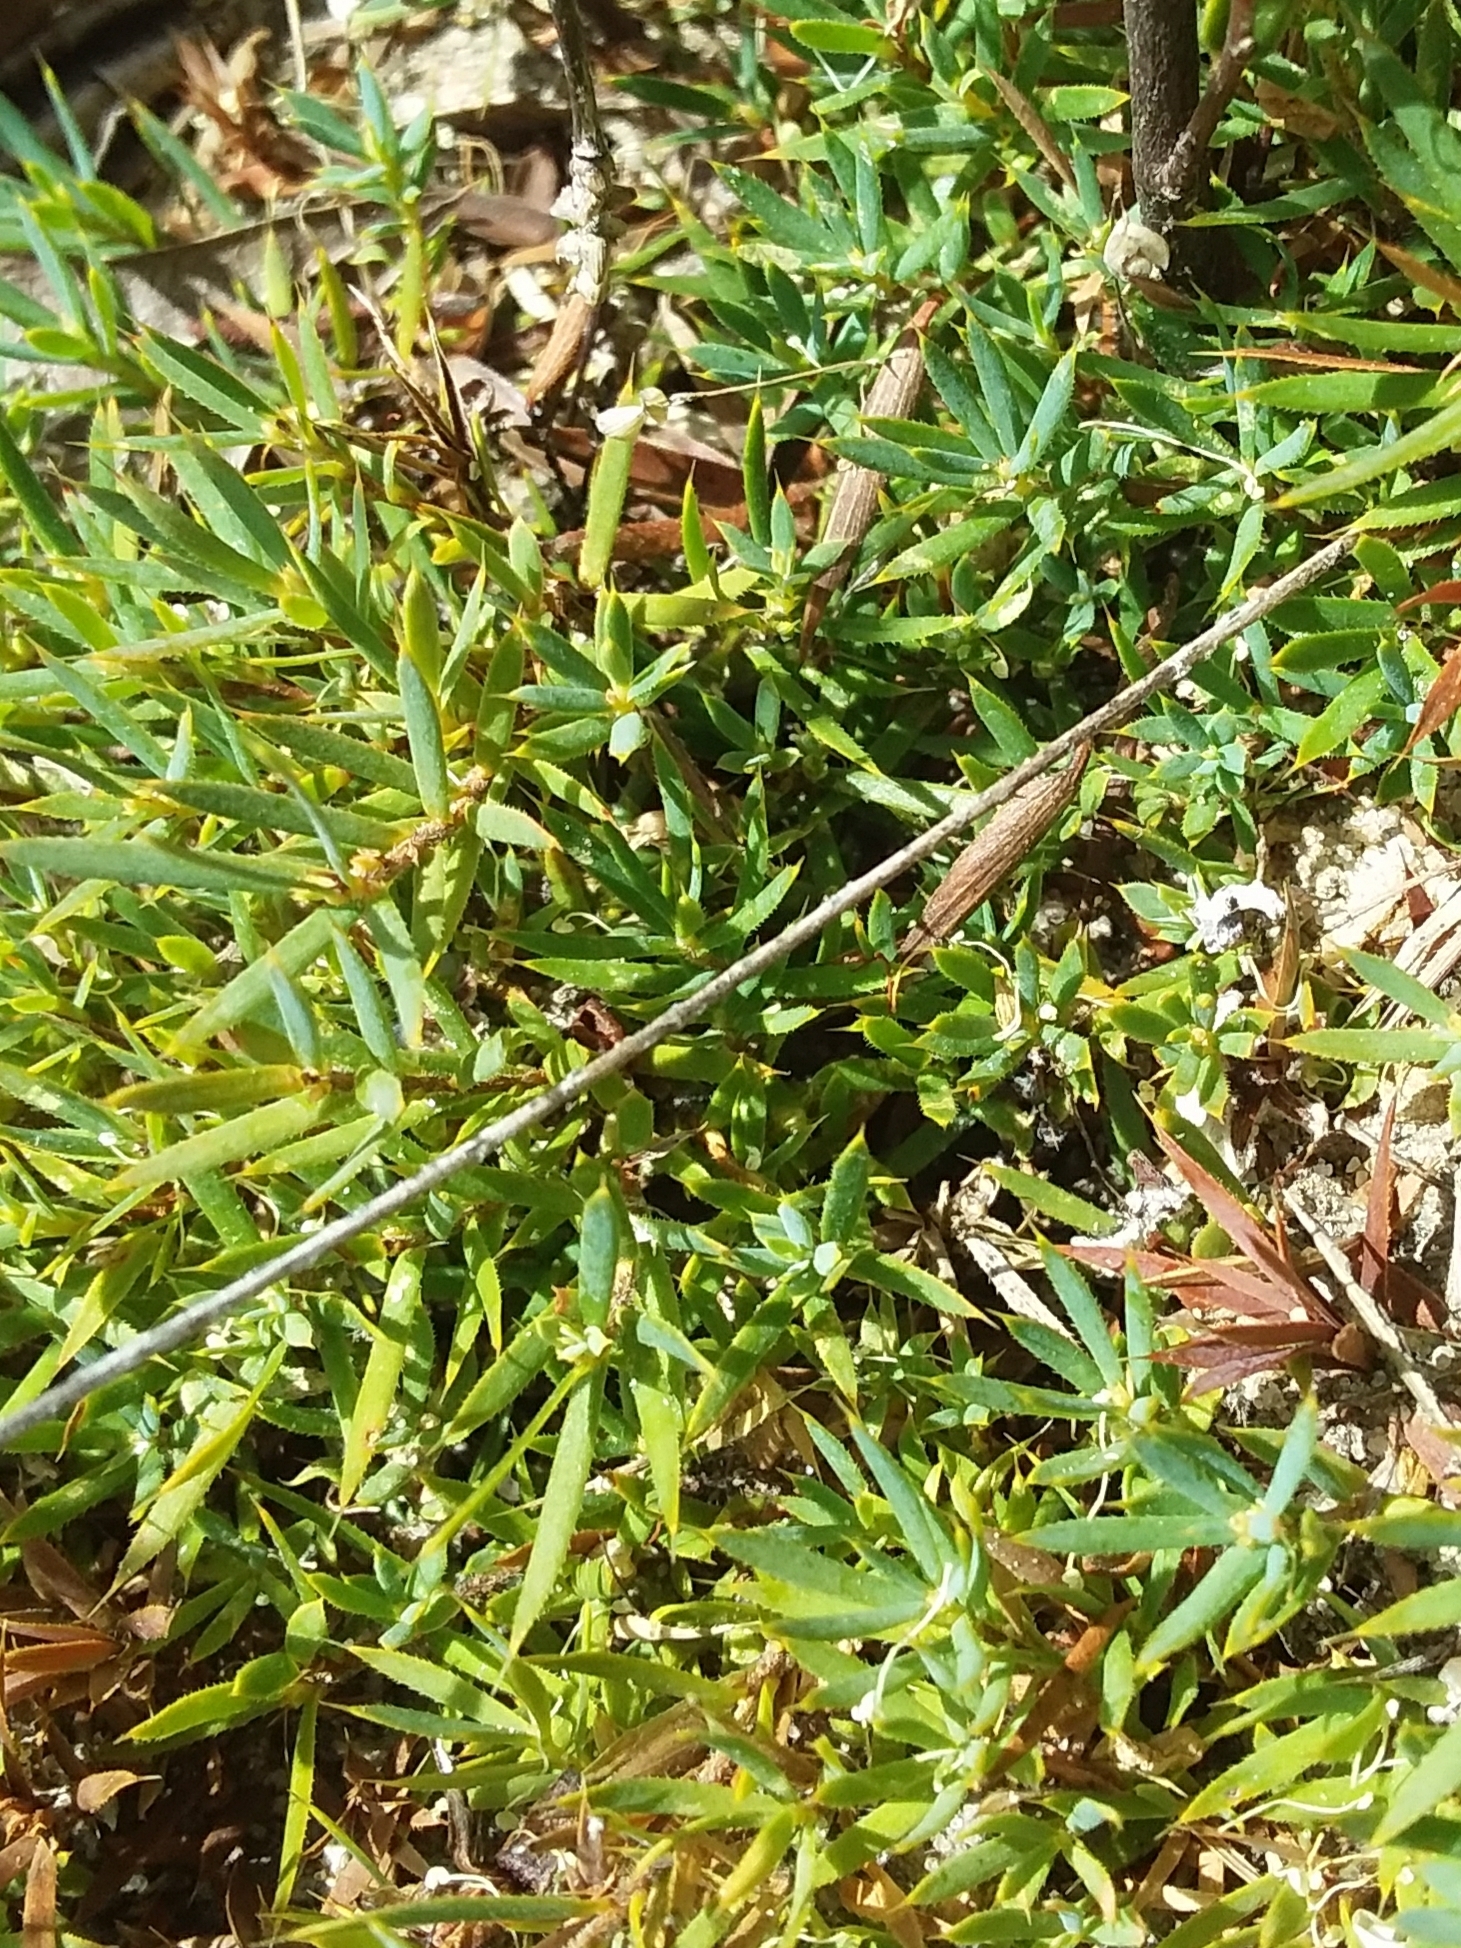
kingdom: Plantae
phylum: Tracheophyta
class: Magnoliopsida
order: Ericales
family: Ericaceae
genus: Styphelia
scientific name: Styphelia humifusa
